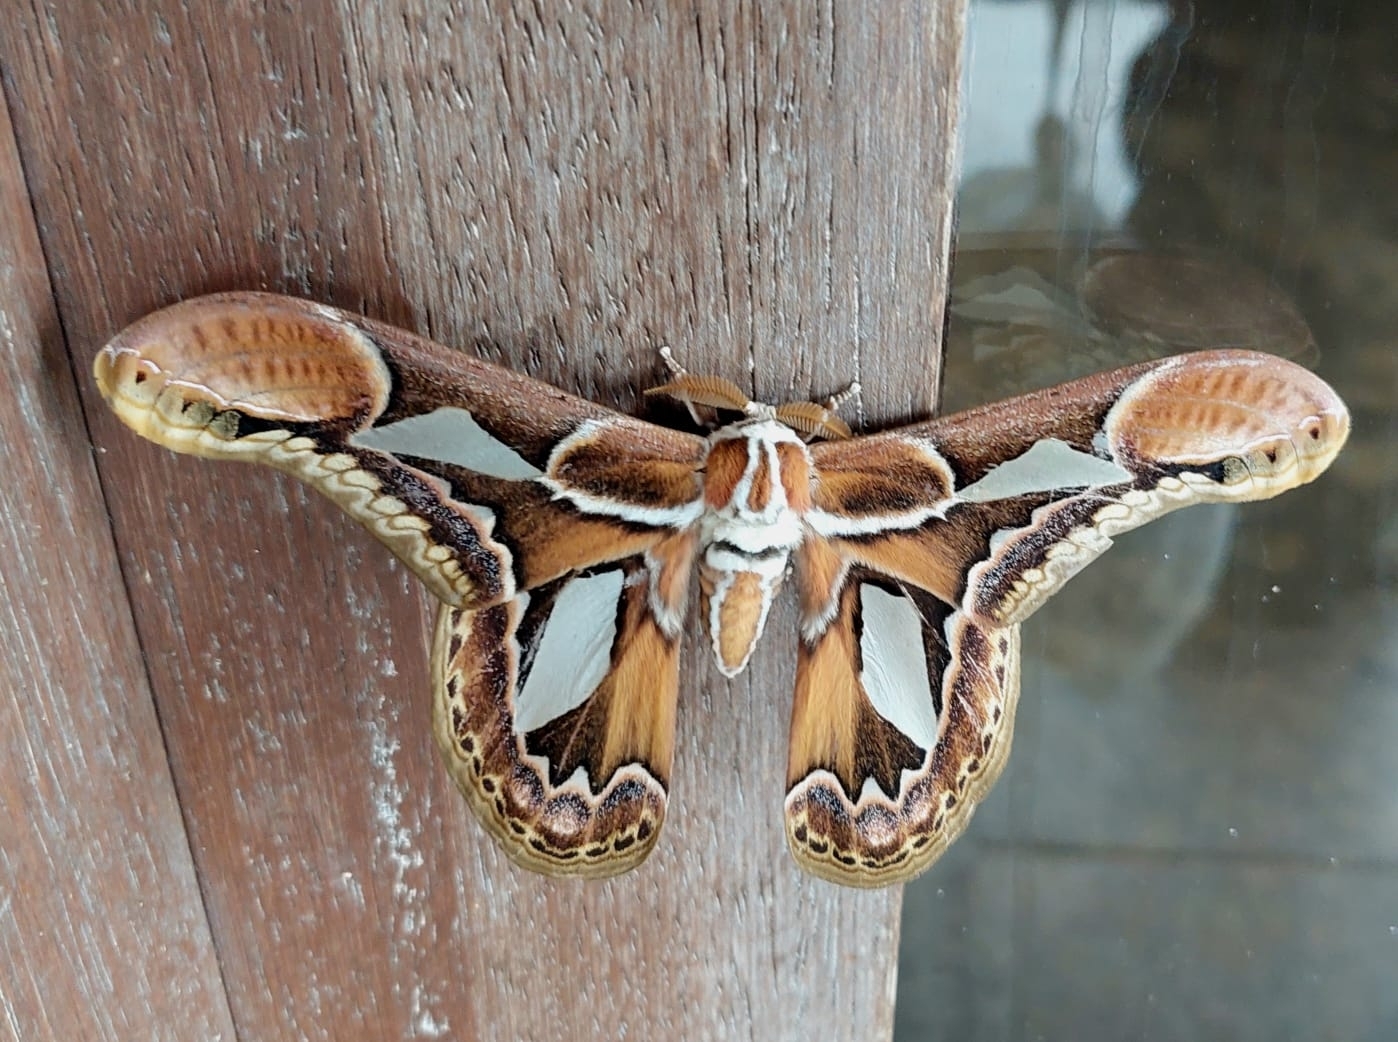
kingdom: Animalia
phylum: Arthropoda
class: Insecta
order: Lepidoptera
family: Saturniidae
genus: Rothschildia
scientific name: Rothschildia hopfferi
